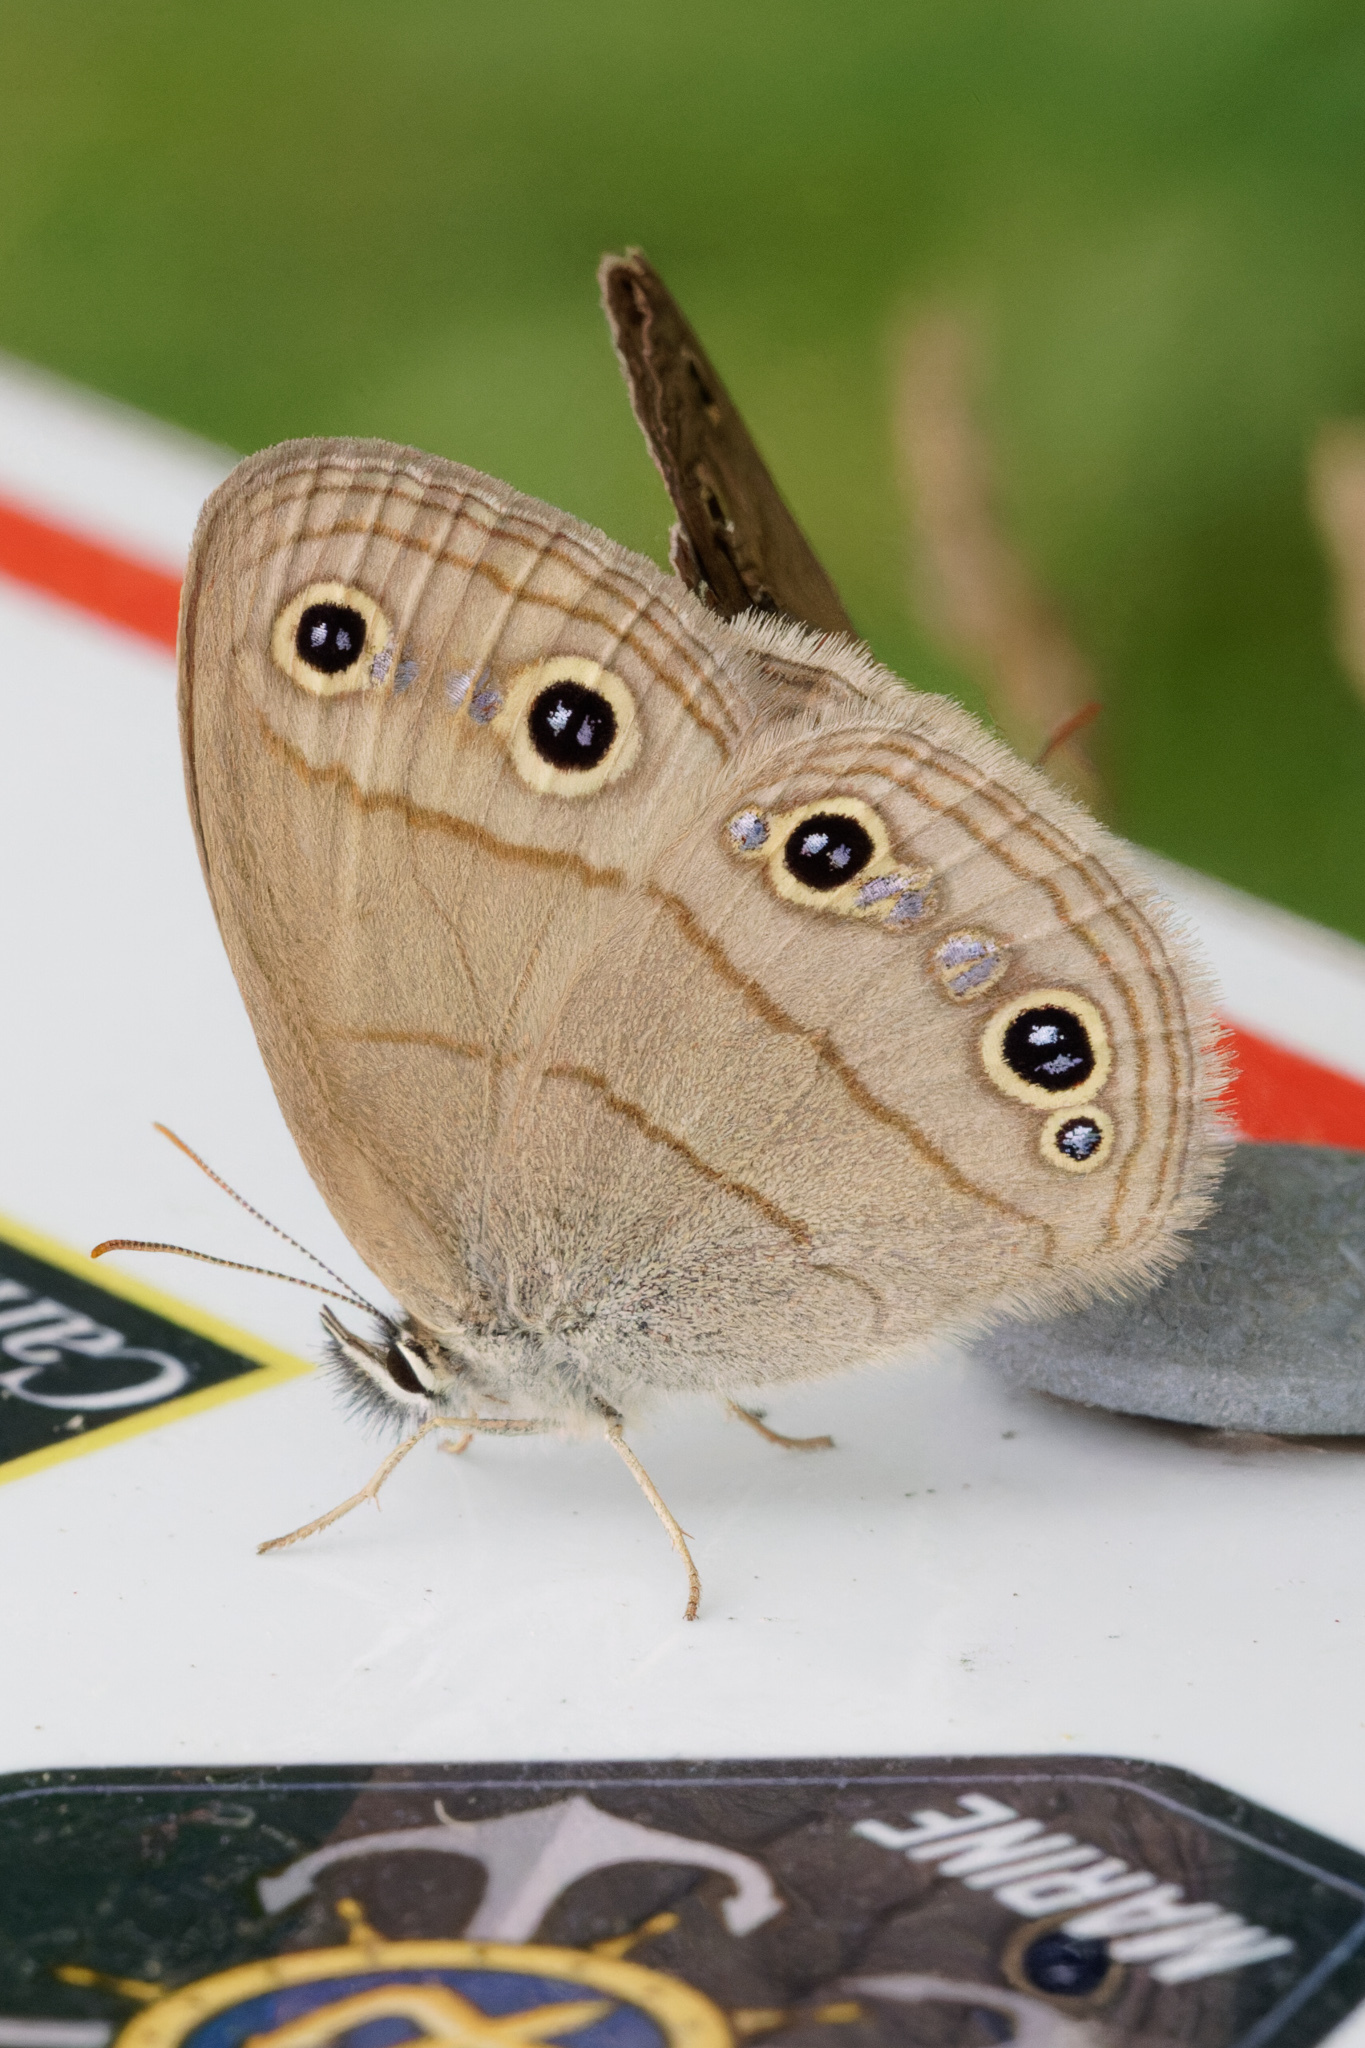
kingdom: Animalia
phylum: Arthropoda
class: Insecta
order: Lepidoptera
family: Nymphalidae
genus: Euptychia
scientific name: Euptychia cymela
